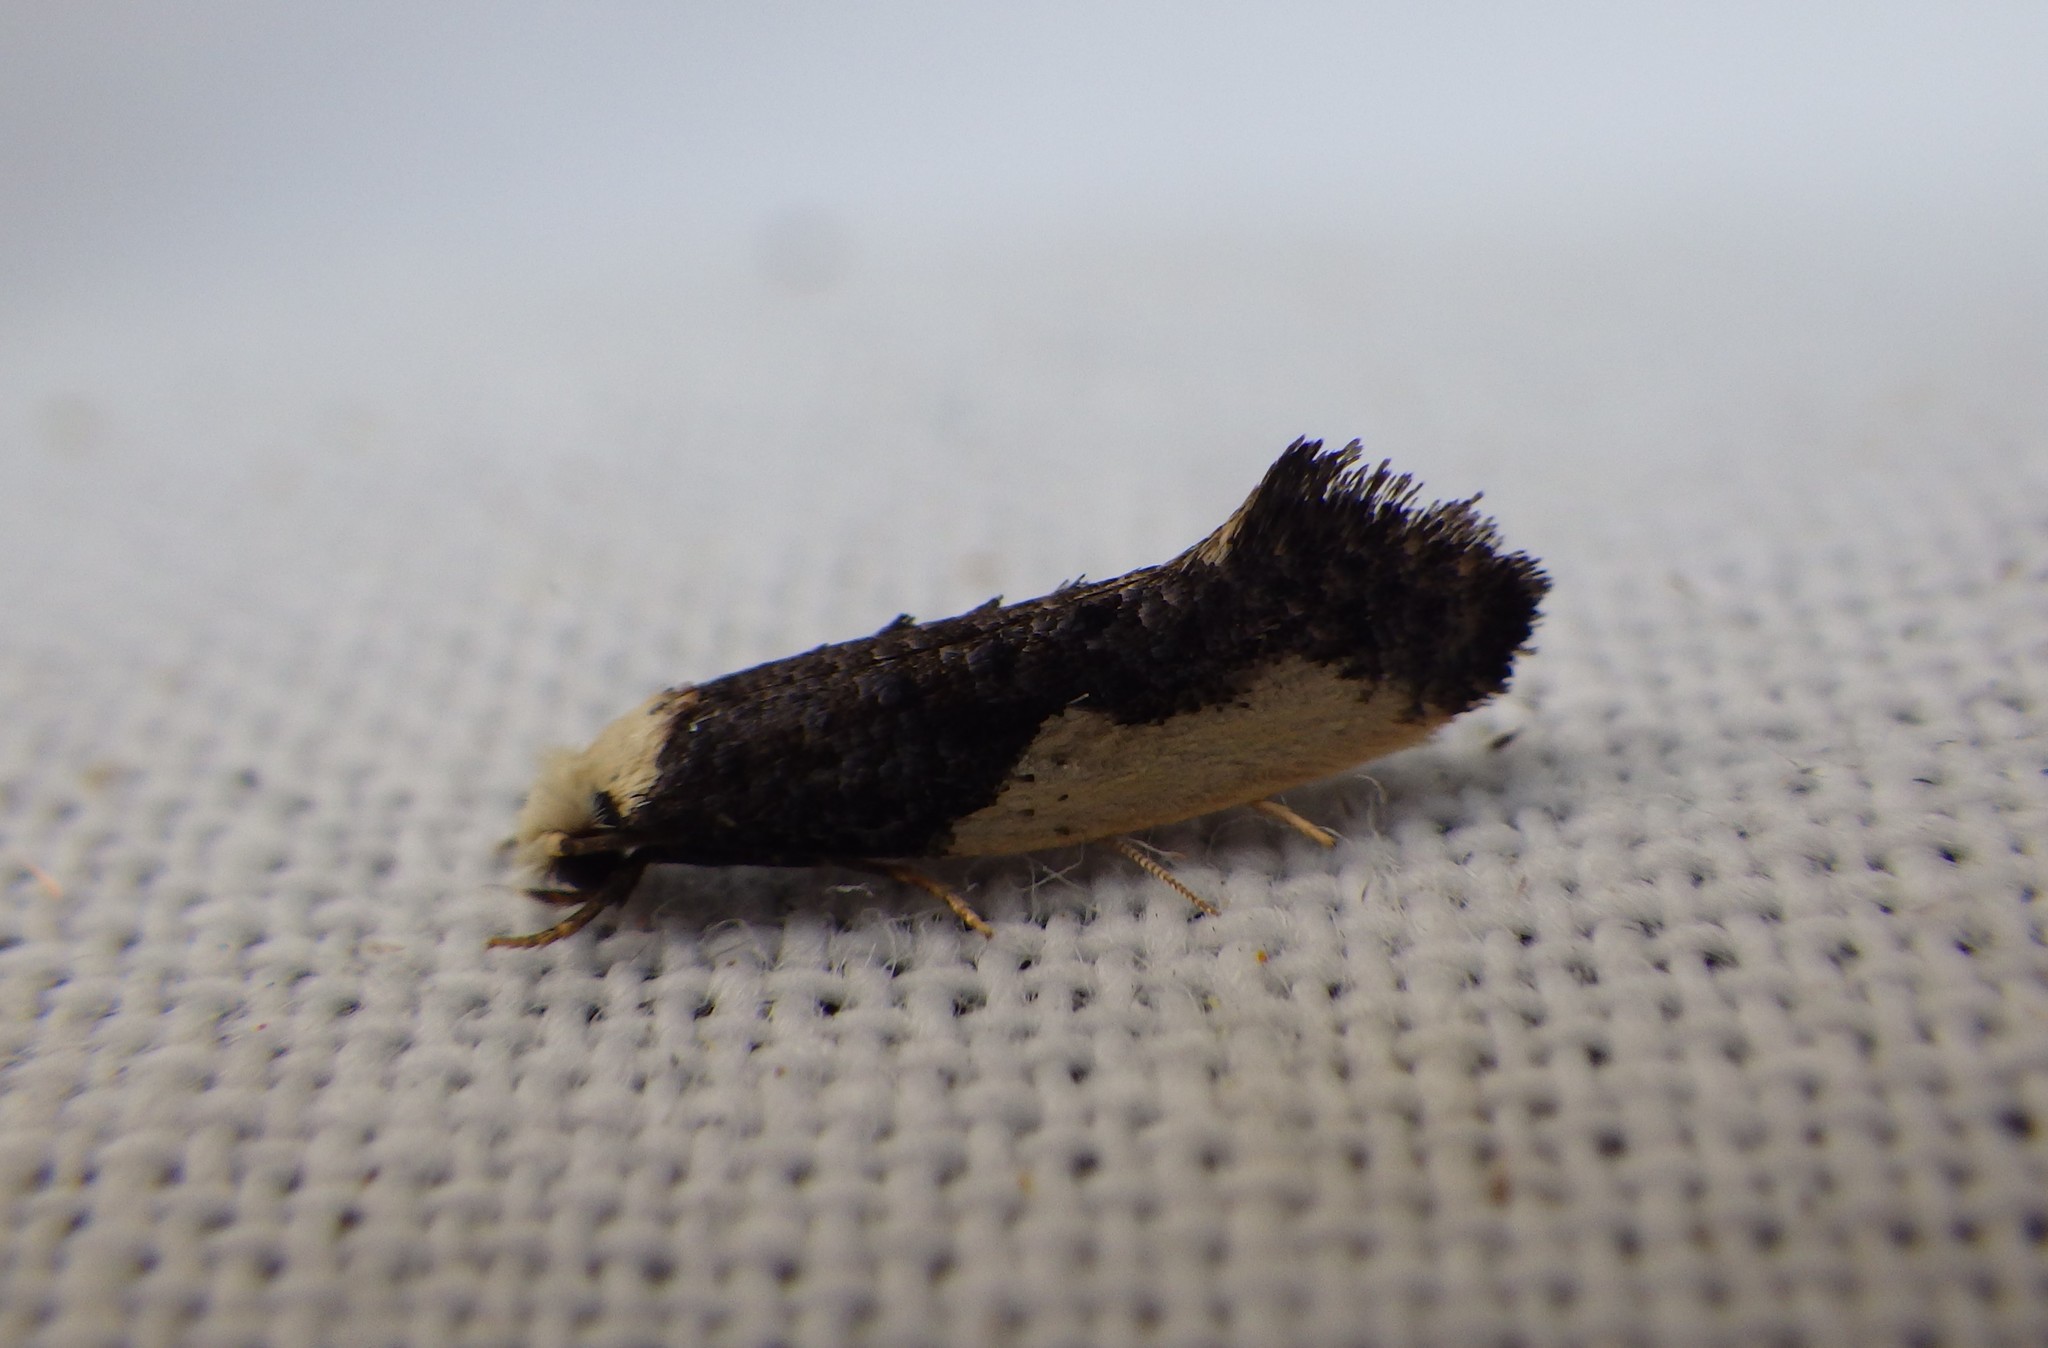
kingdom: Animalia
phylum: Arthropoda
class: Insecta
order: Lepidoptera
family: Tineidae
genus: Monopis
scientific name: Monopis monachella
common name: Moth
